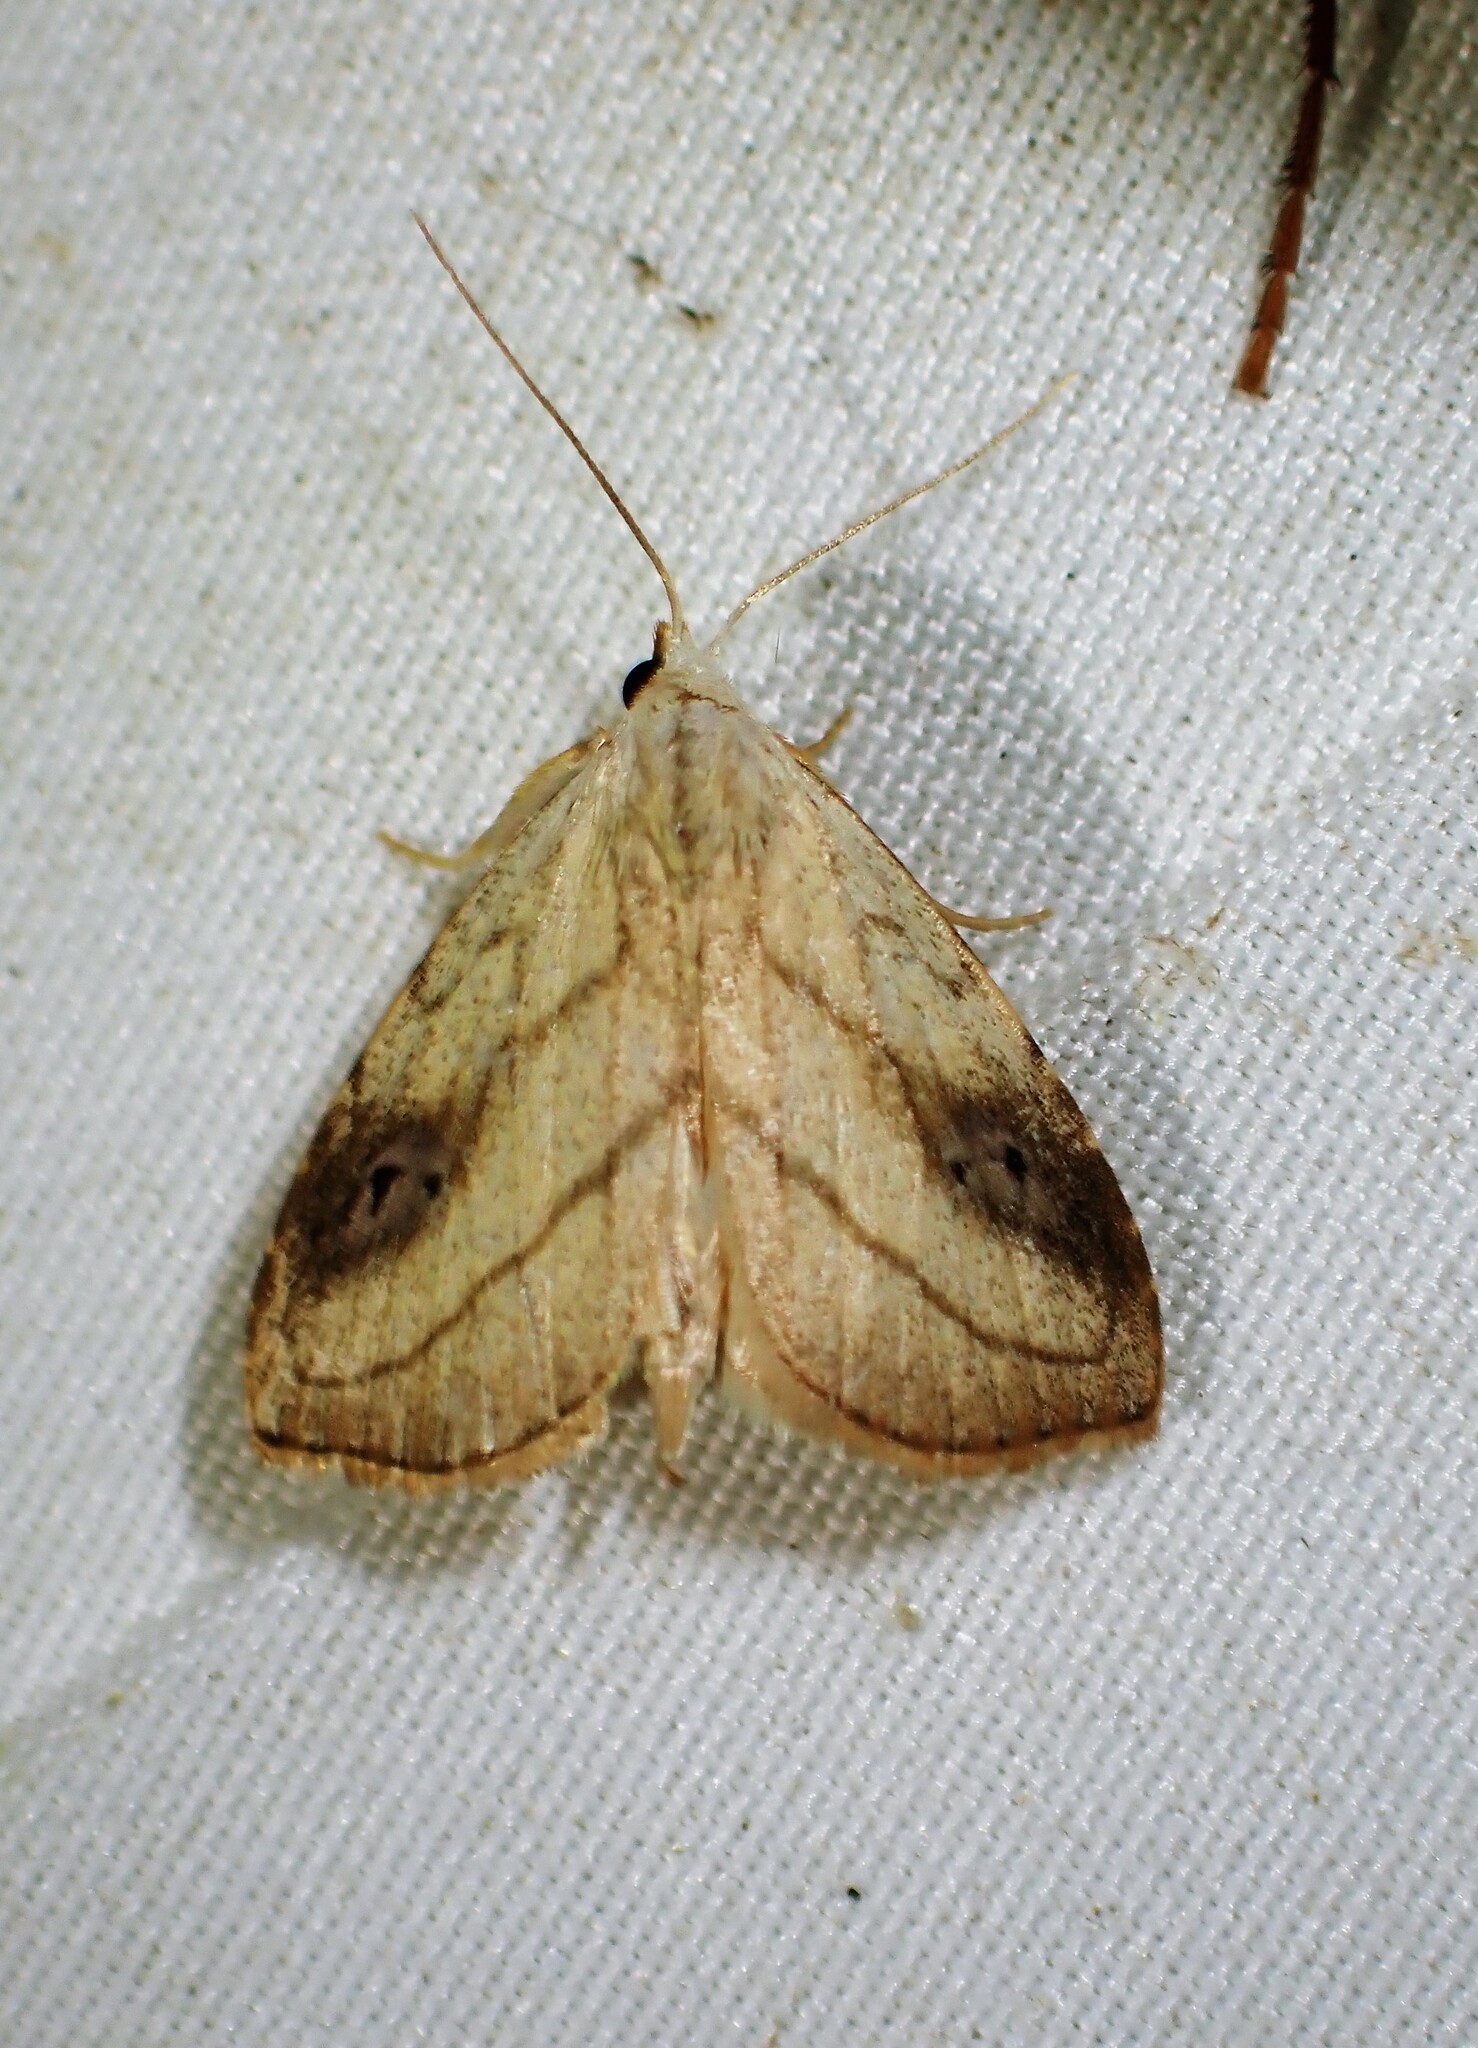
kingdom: Animalia
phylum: Arthropoda
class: Insecta
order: Lepidoptera
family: Erebidae
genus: Rivula
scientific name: Rivula propinqualis
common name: Spotted grass moth
